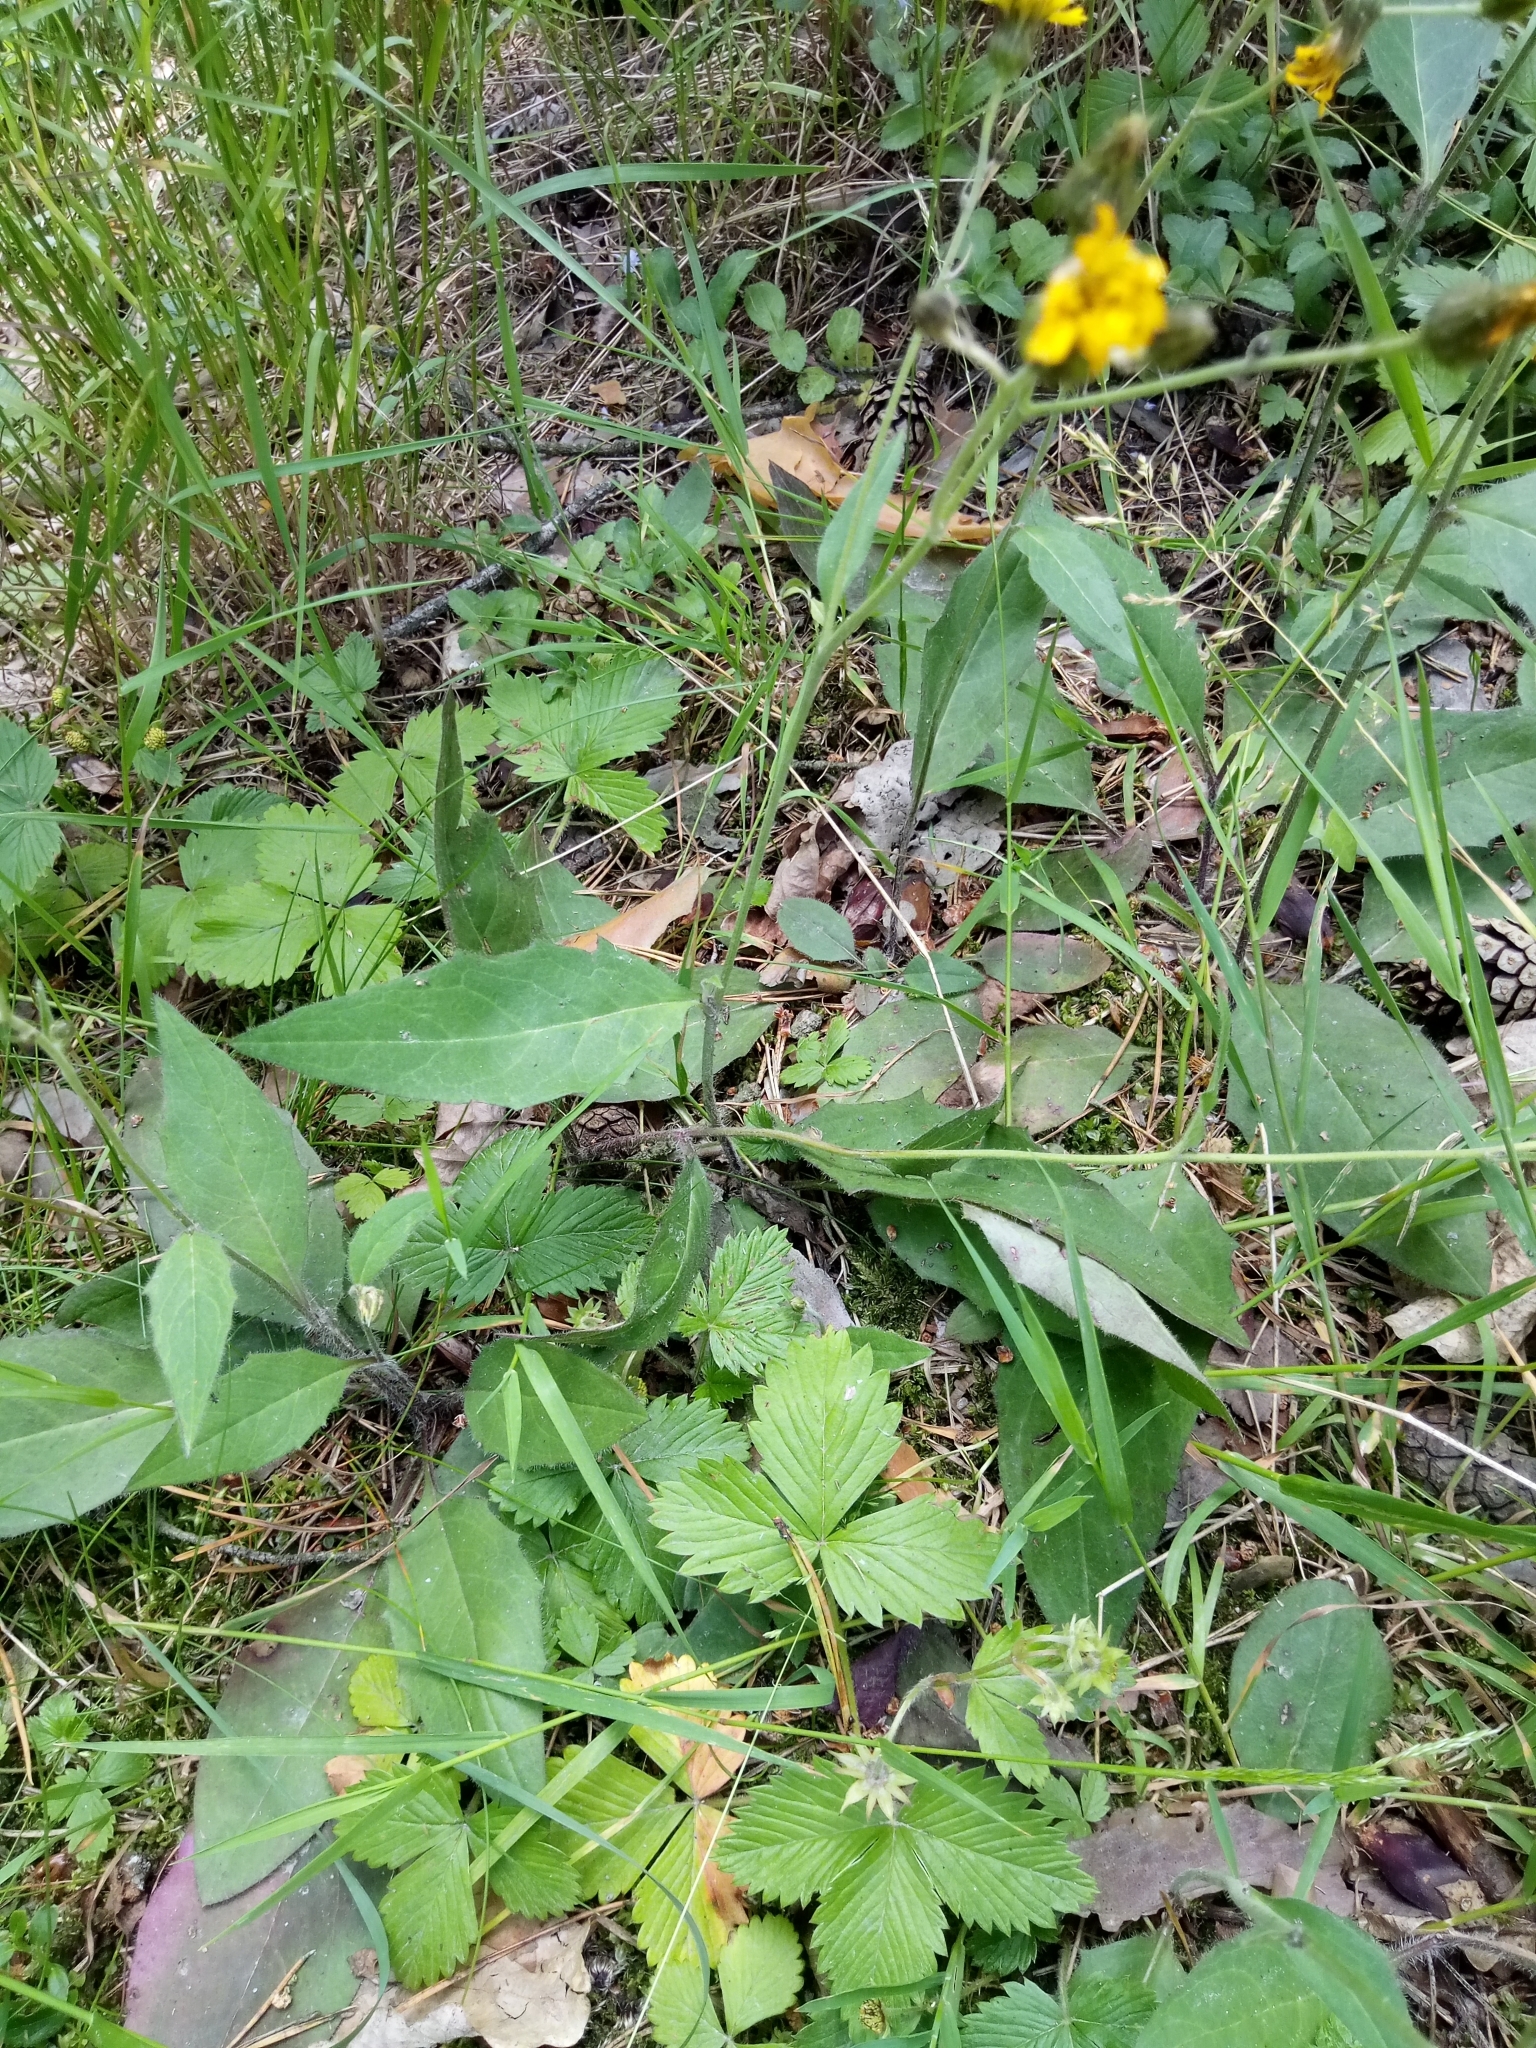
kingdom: Plantae
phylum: Tracheophyta
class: Magnoliopsida
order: Asterales
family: Asteraceae
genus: Hieracium
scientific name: Hieracium lachenalii
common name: Common hawkweed
